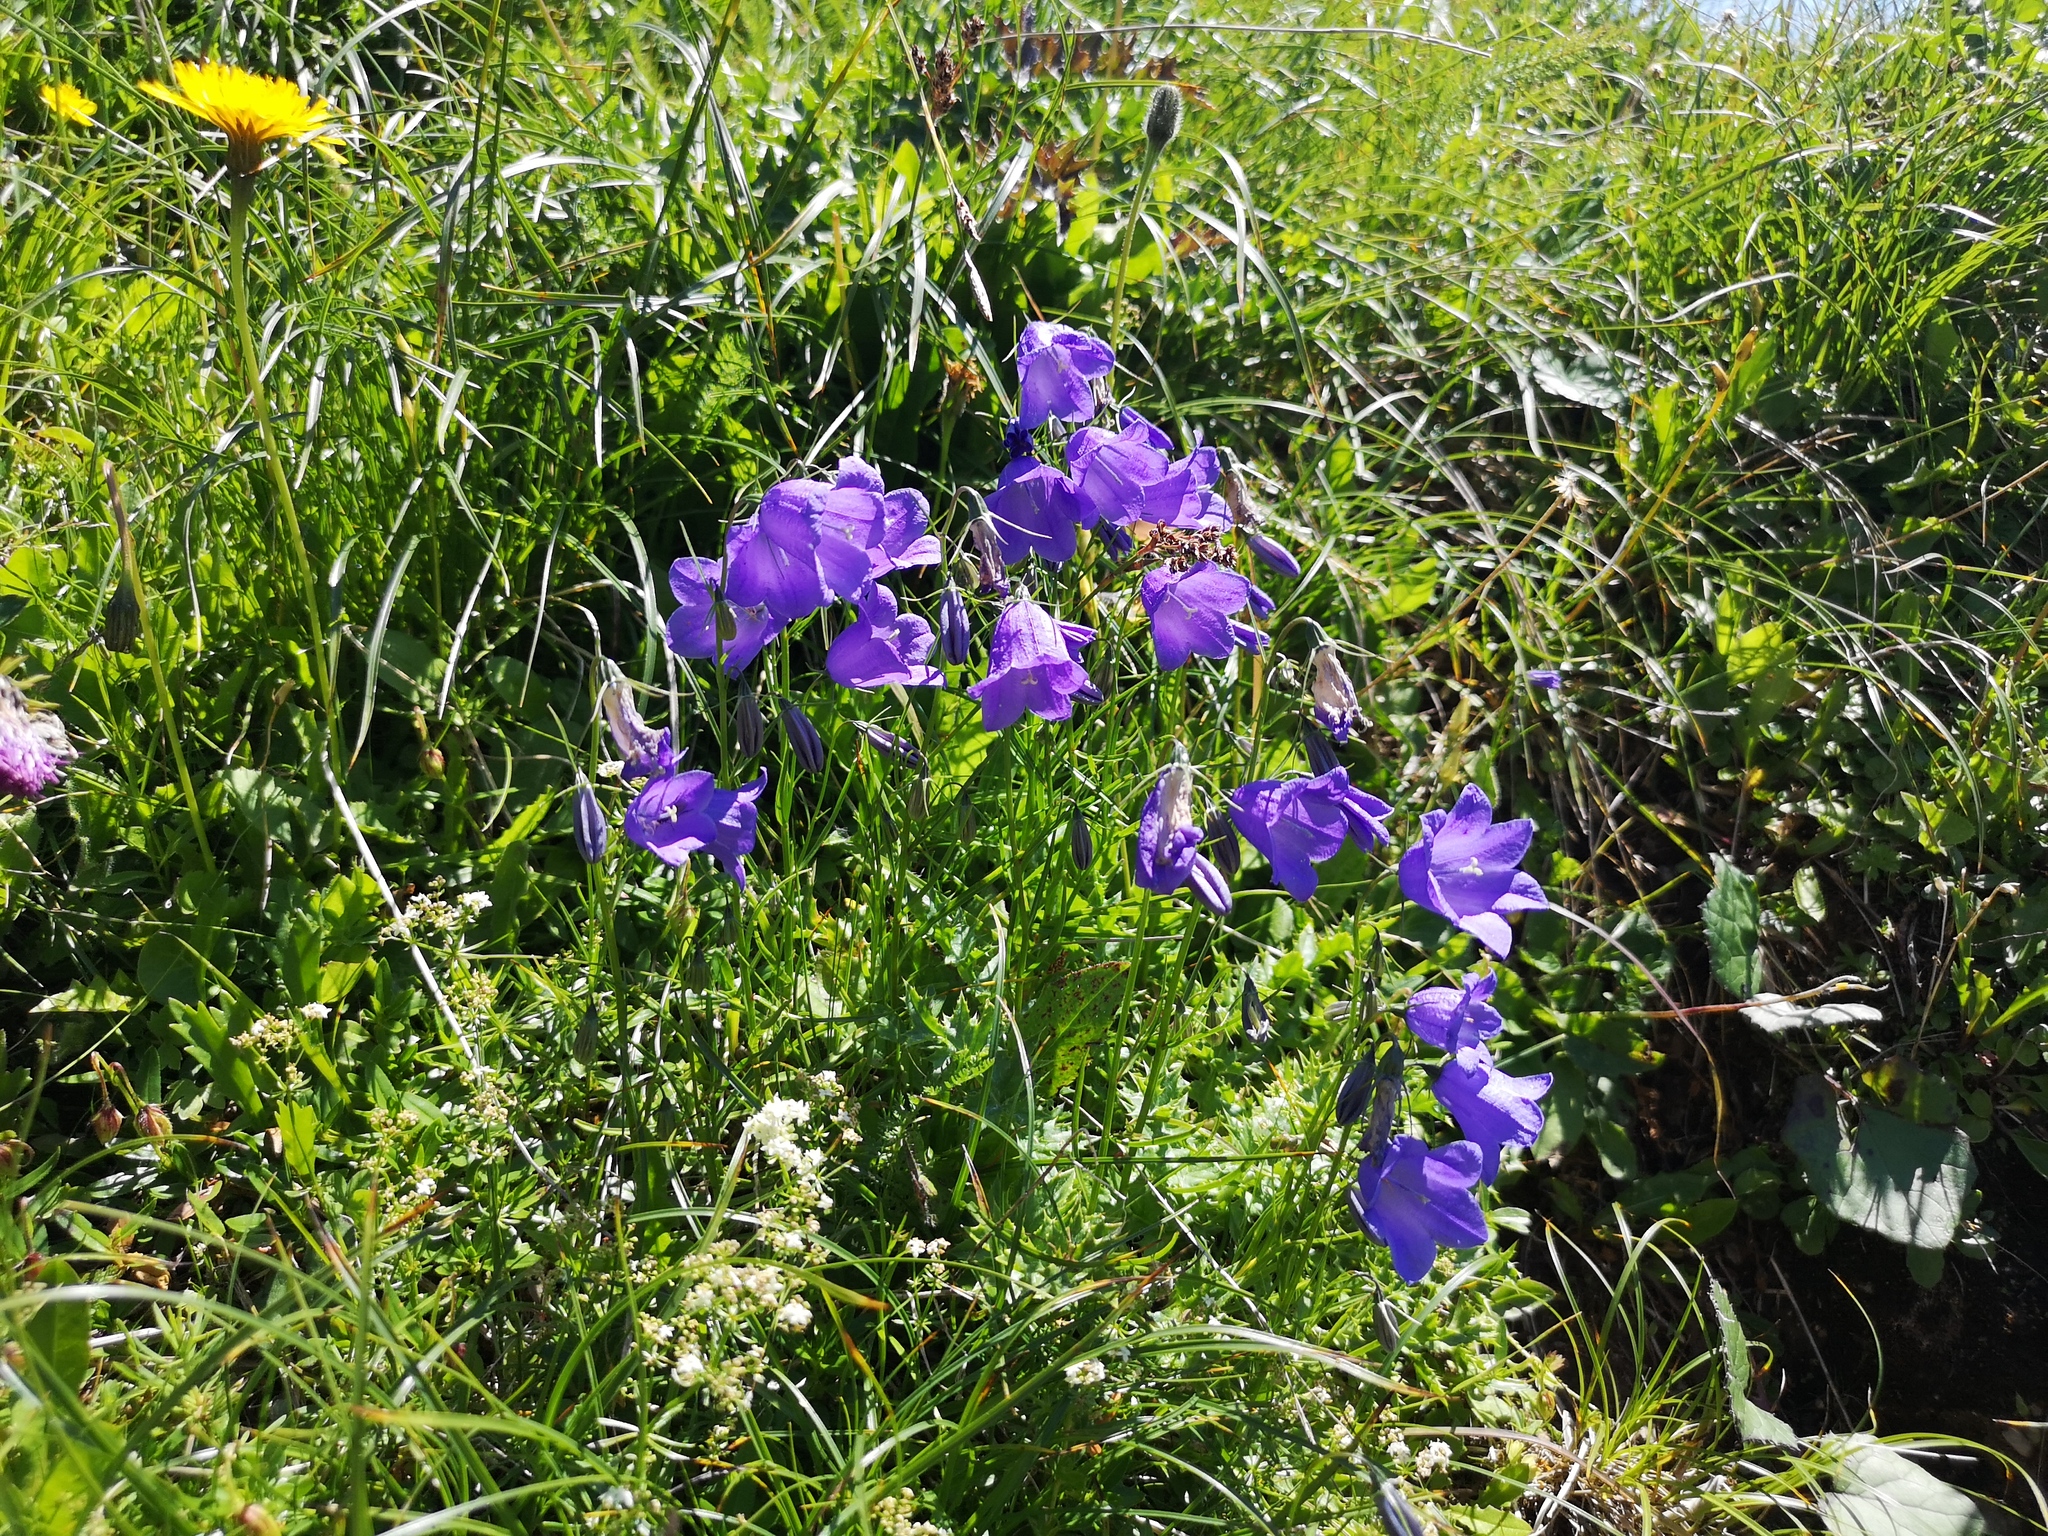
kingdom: Plantae
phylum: Tracheophyta
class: Magnoliopsida
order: Asterales
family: Campanulaceae
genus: Campanula
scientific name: Campanula scheuchzeri
